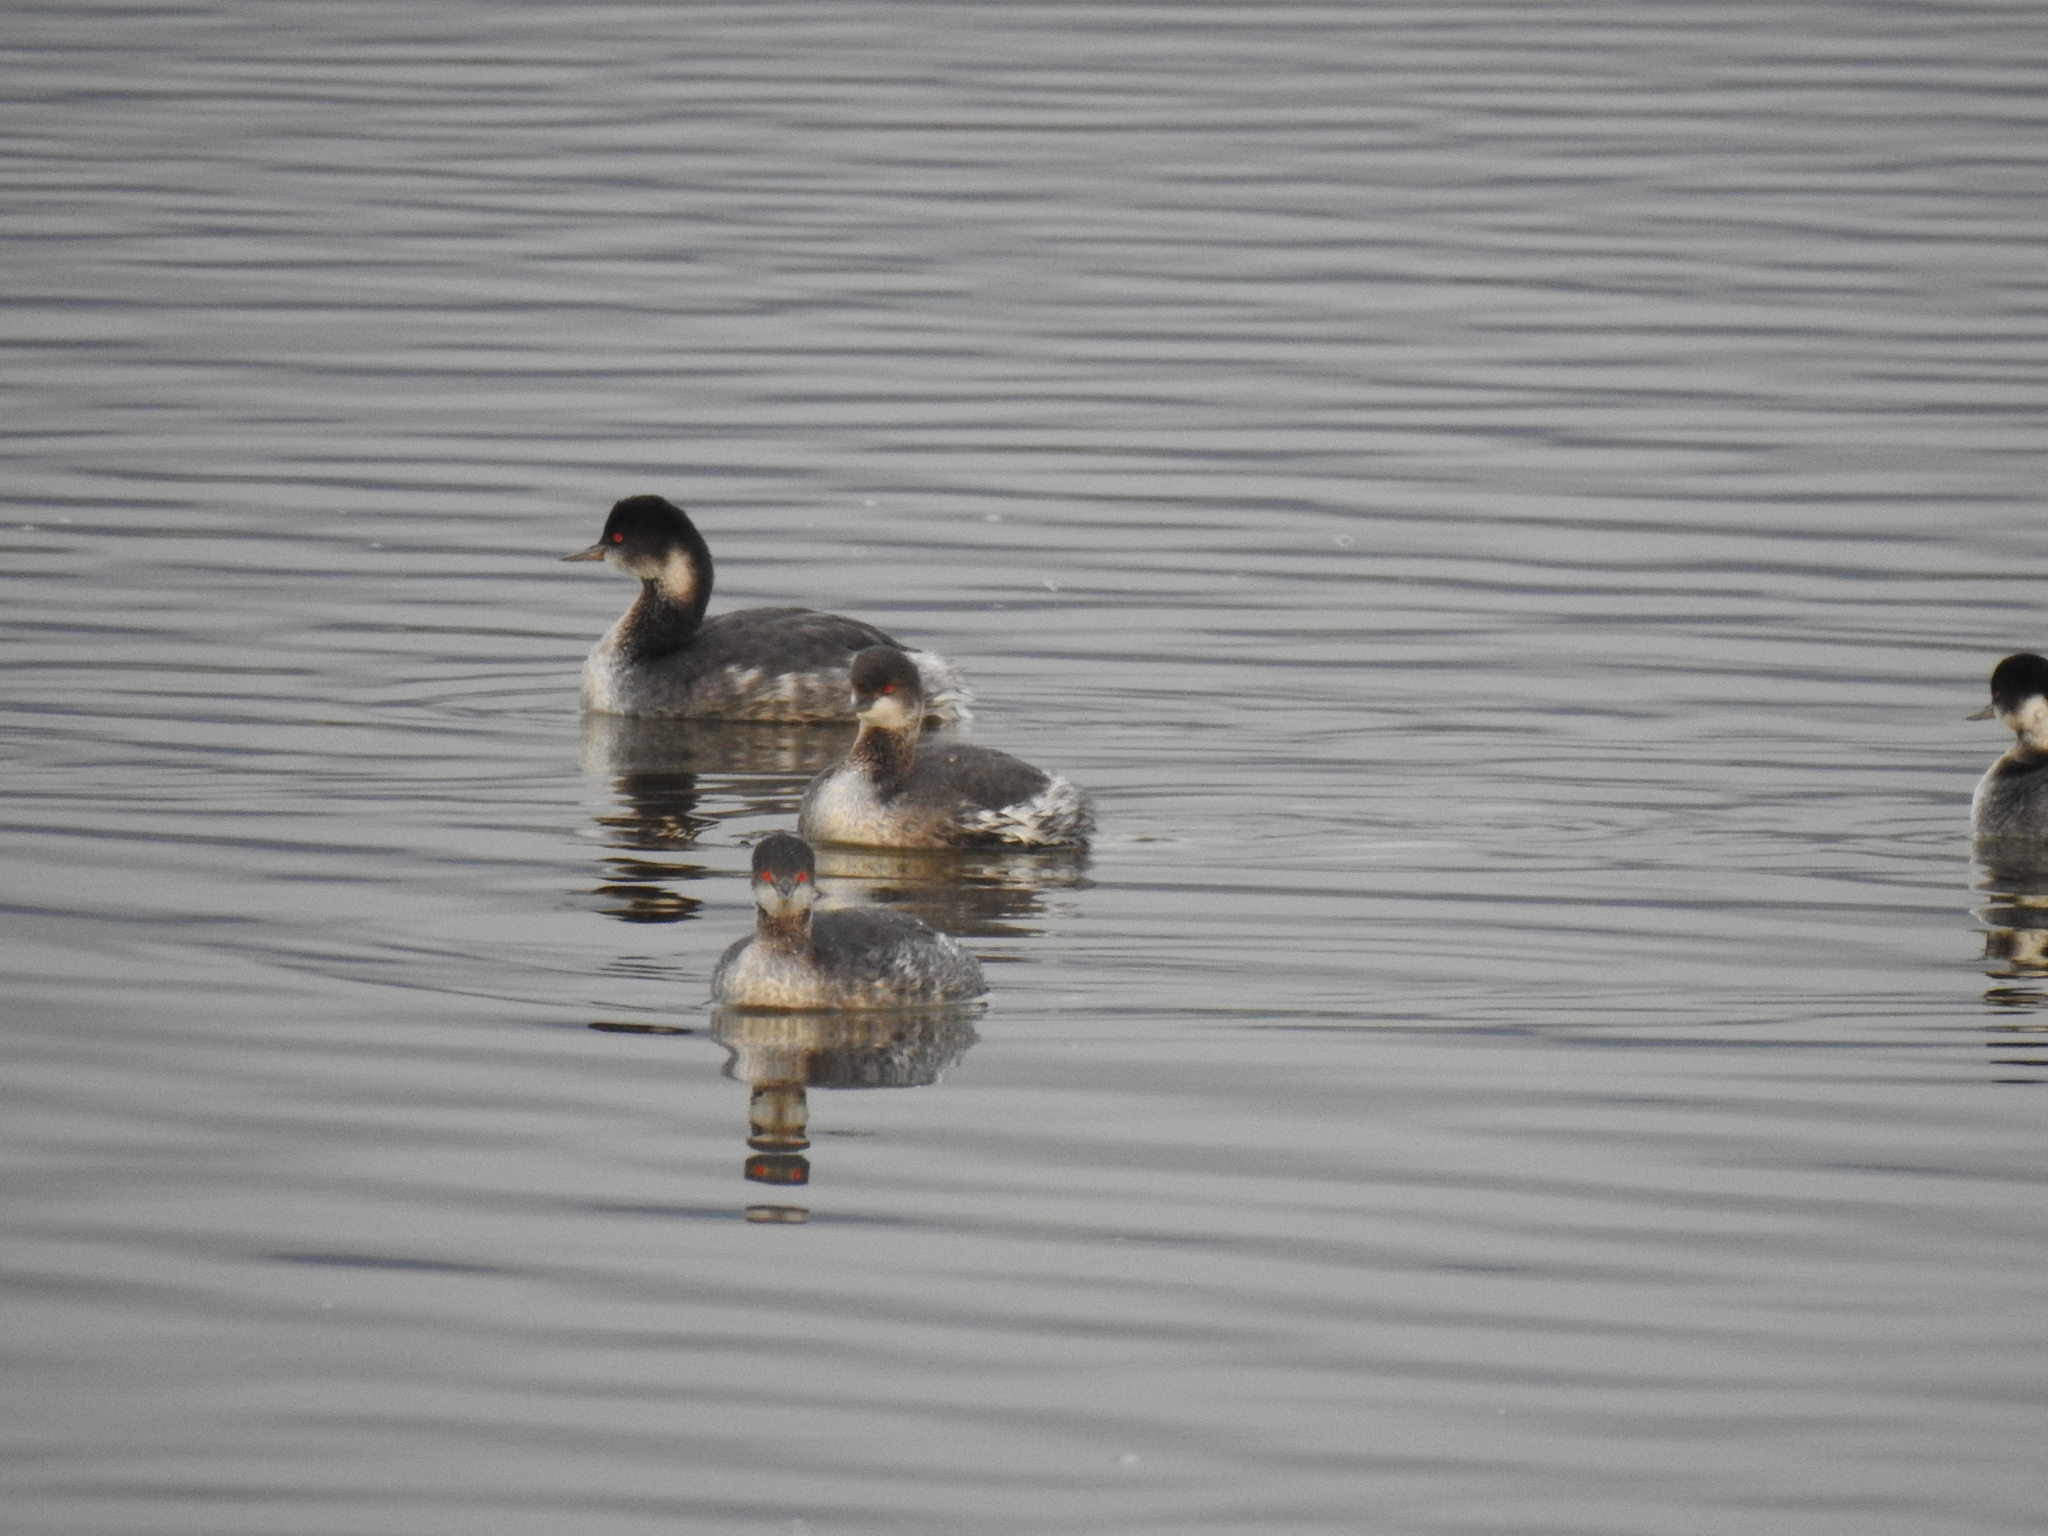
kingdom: Animalia
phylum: Chordata
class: Aves
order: Podicipediformes
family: Podicipedidae
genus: Podiceps
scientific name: Podiceps nigricollis
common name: Black-necked grebe
